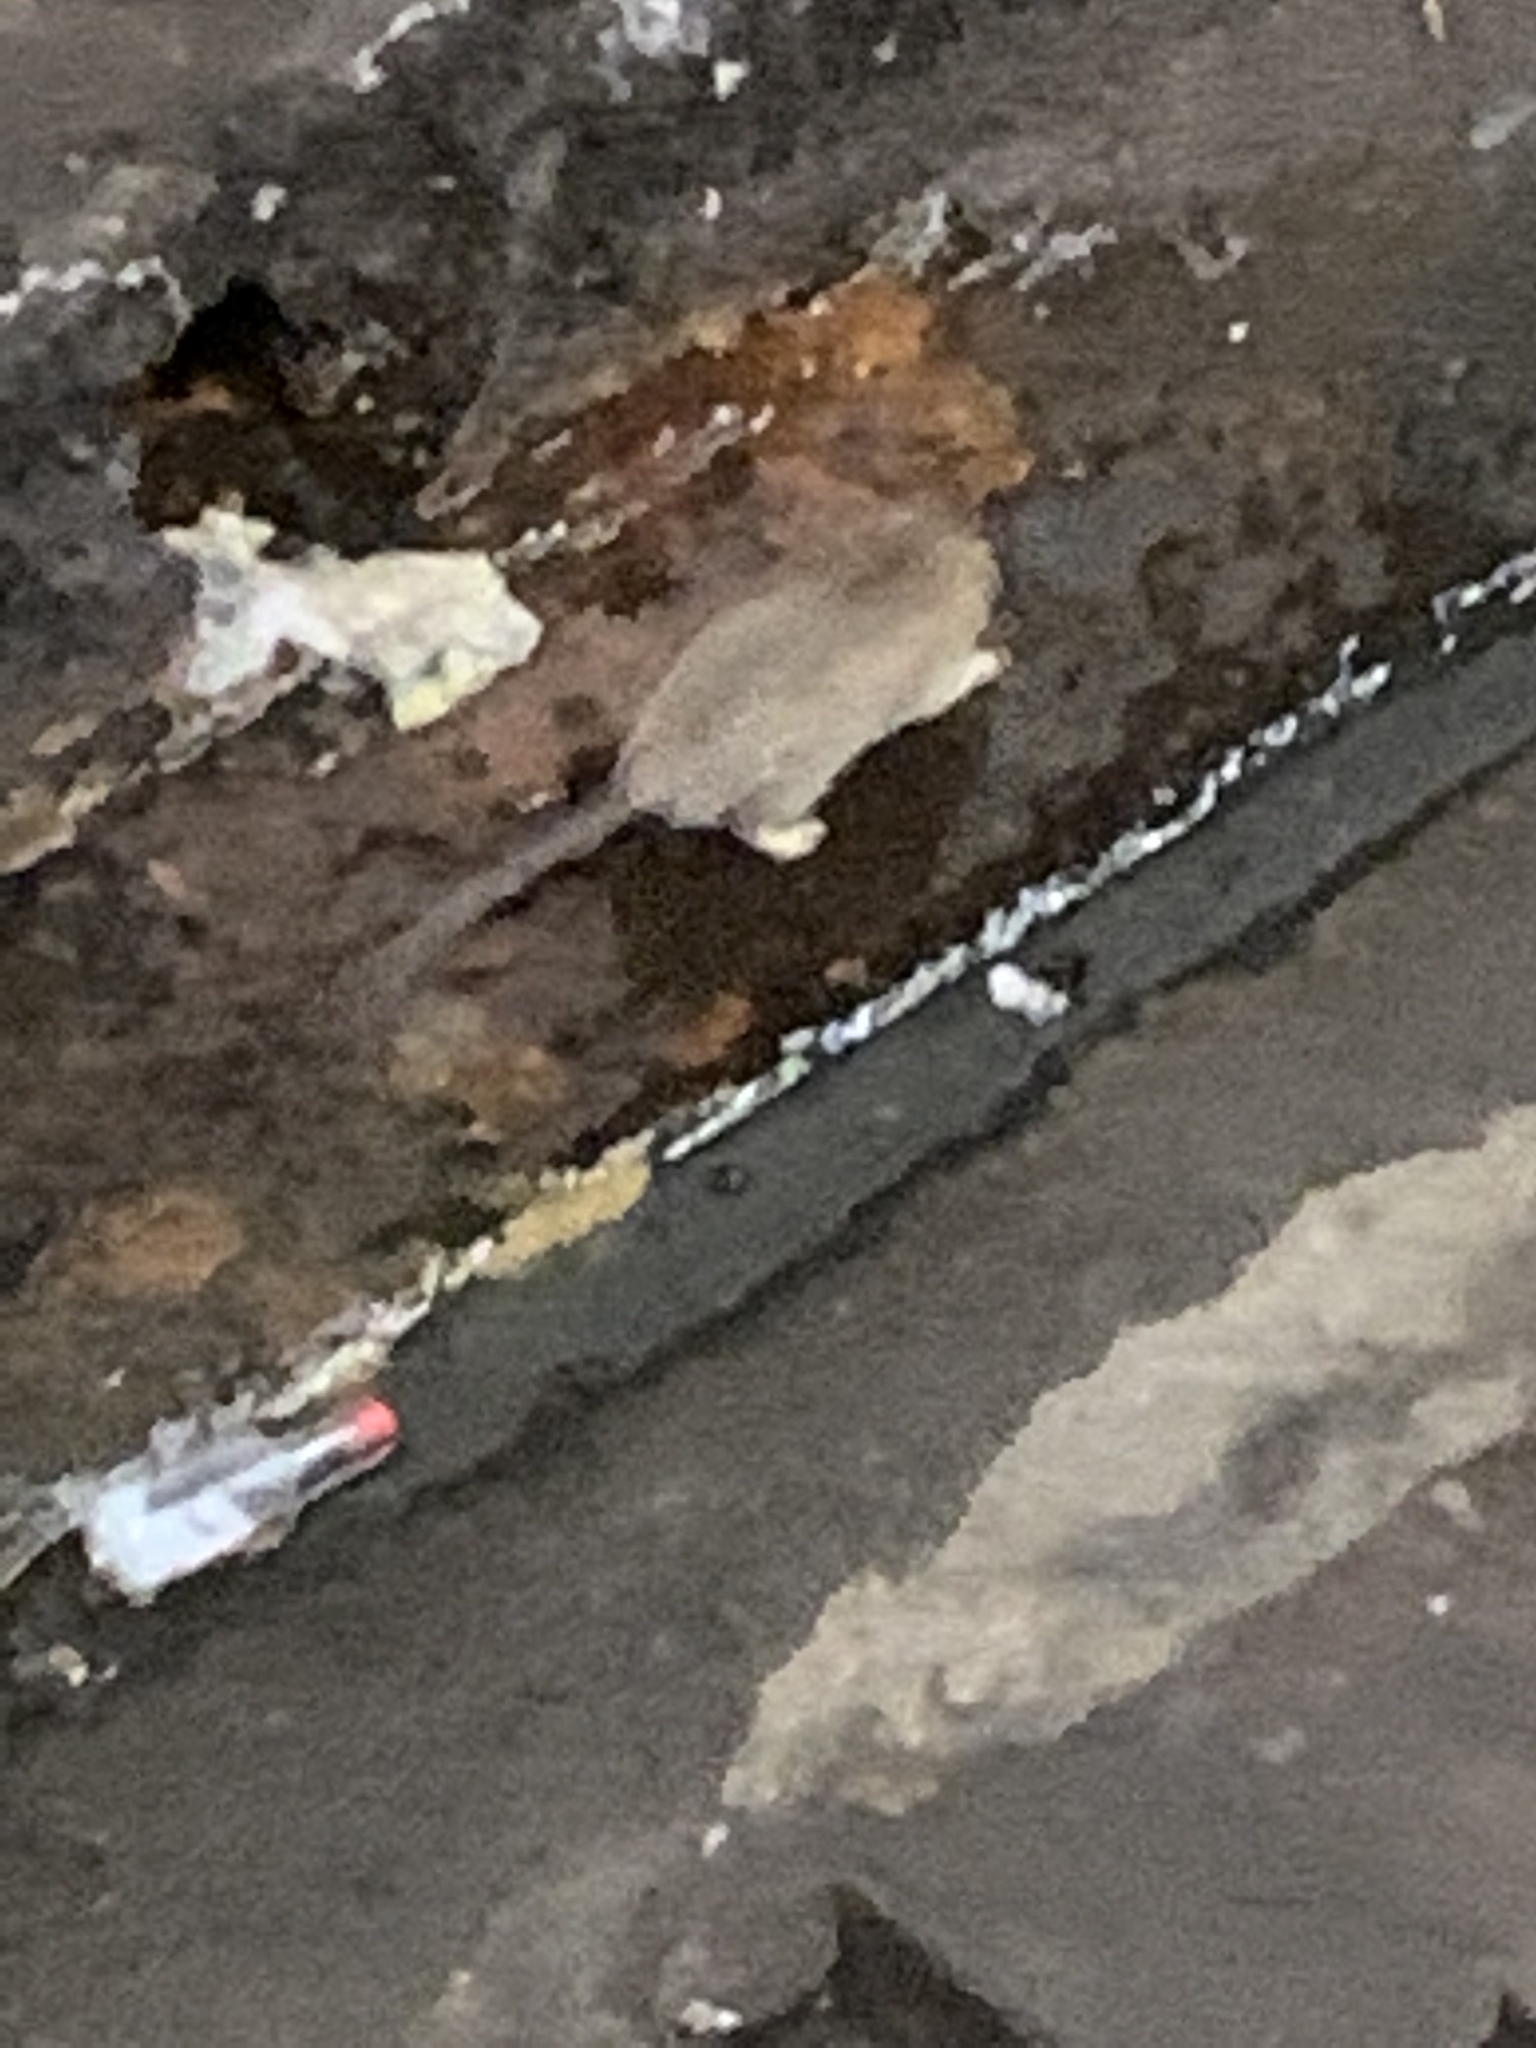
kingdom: Animalia
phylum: Chordata
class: Mammalia
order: Rodentia
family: Muridae
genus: Rattus
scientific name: Rattus norvegicus
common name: Brown rat
